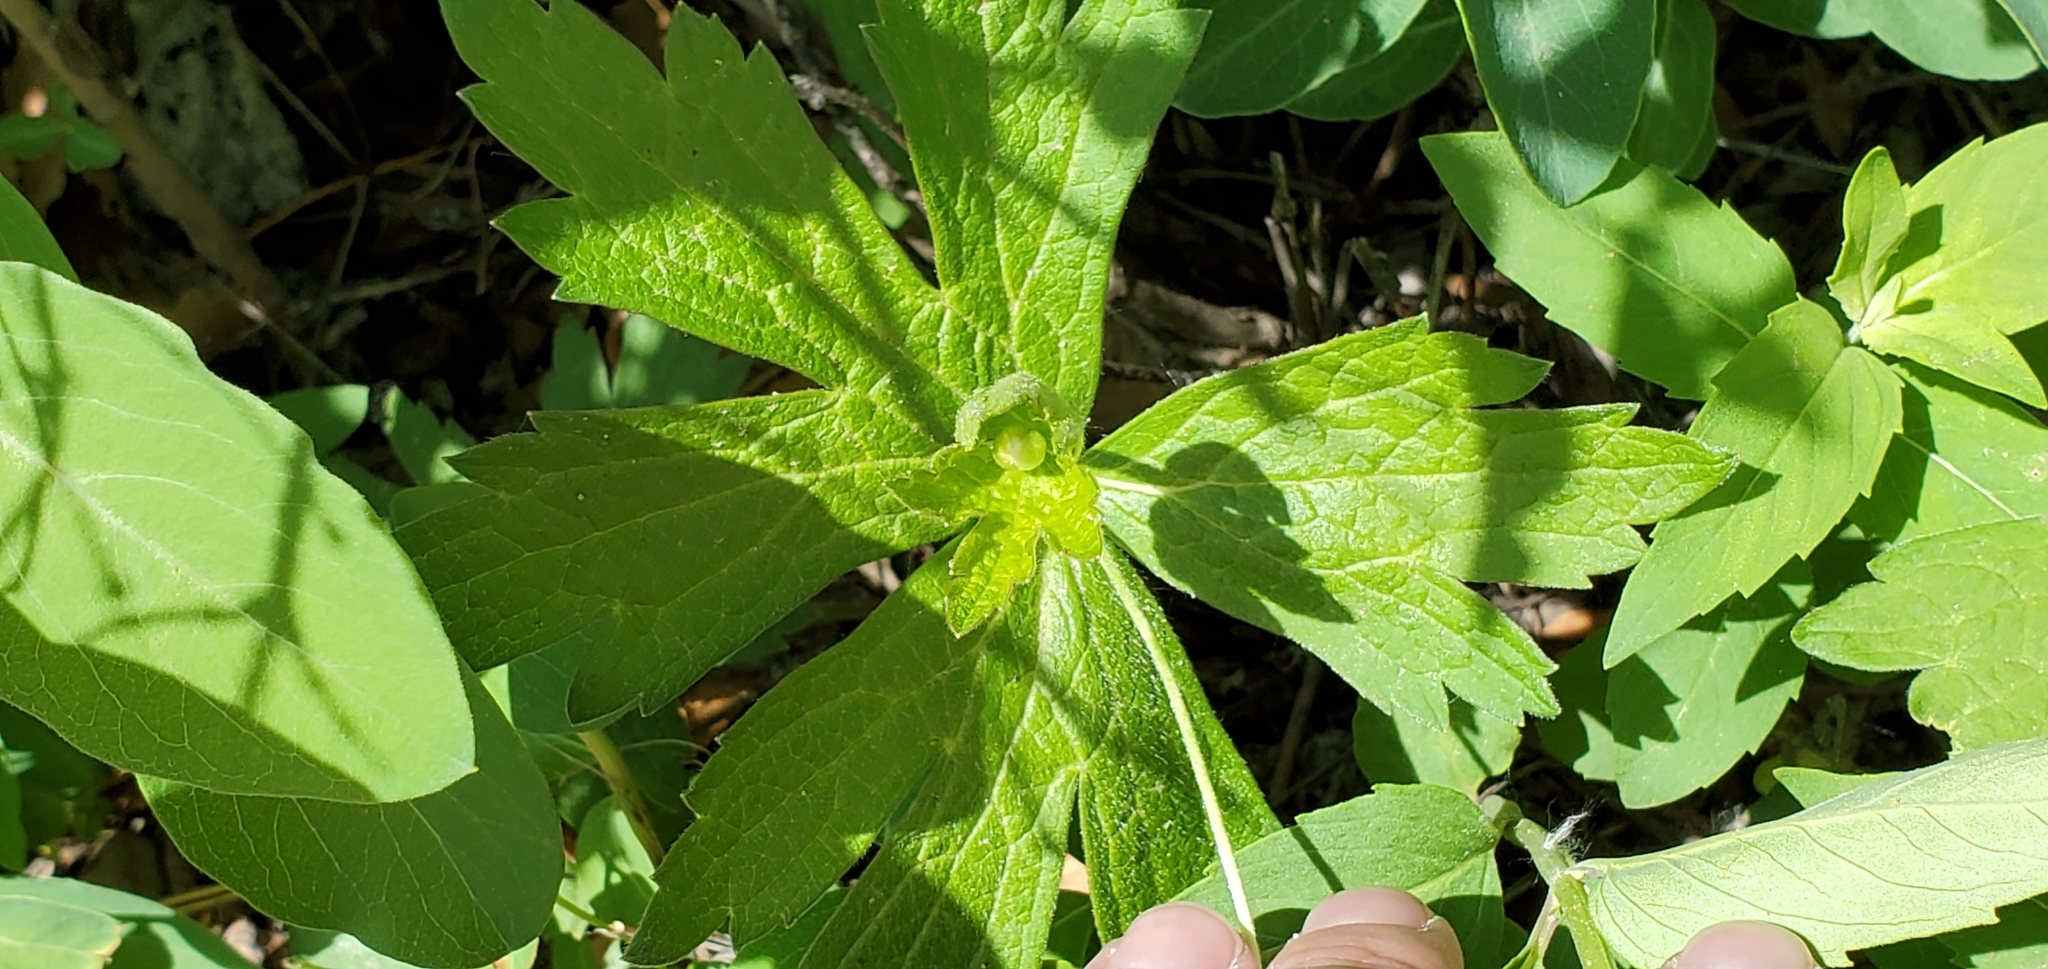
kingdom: Plantae
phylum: Tracheophyta
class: Magnoliopsida
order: Ranunculales
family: Ranunculaceae
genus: Anemonastrum
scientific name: Anemonastrum canadense
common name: Canada anemone
